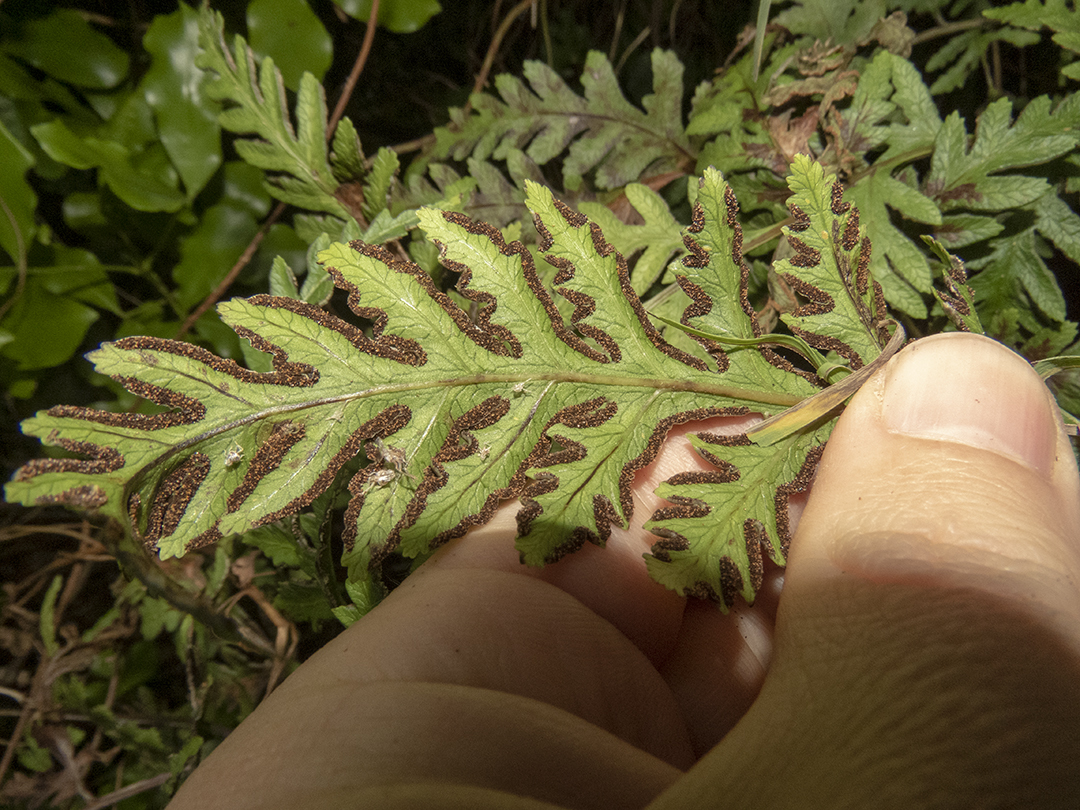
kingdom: Plantae
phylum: Tracheophyta
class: Polypodiopsida
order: Polypodiales
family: Pteridaceae
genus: Pteris
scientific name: Pteris macilenta
